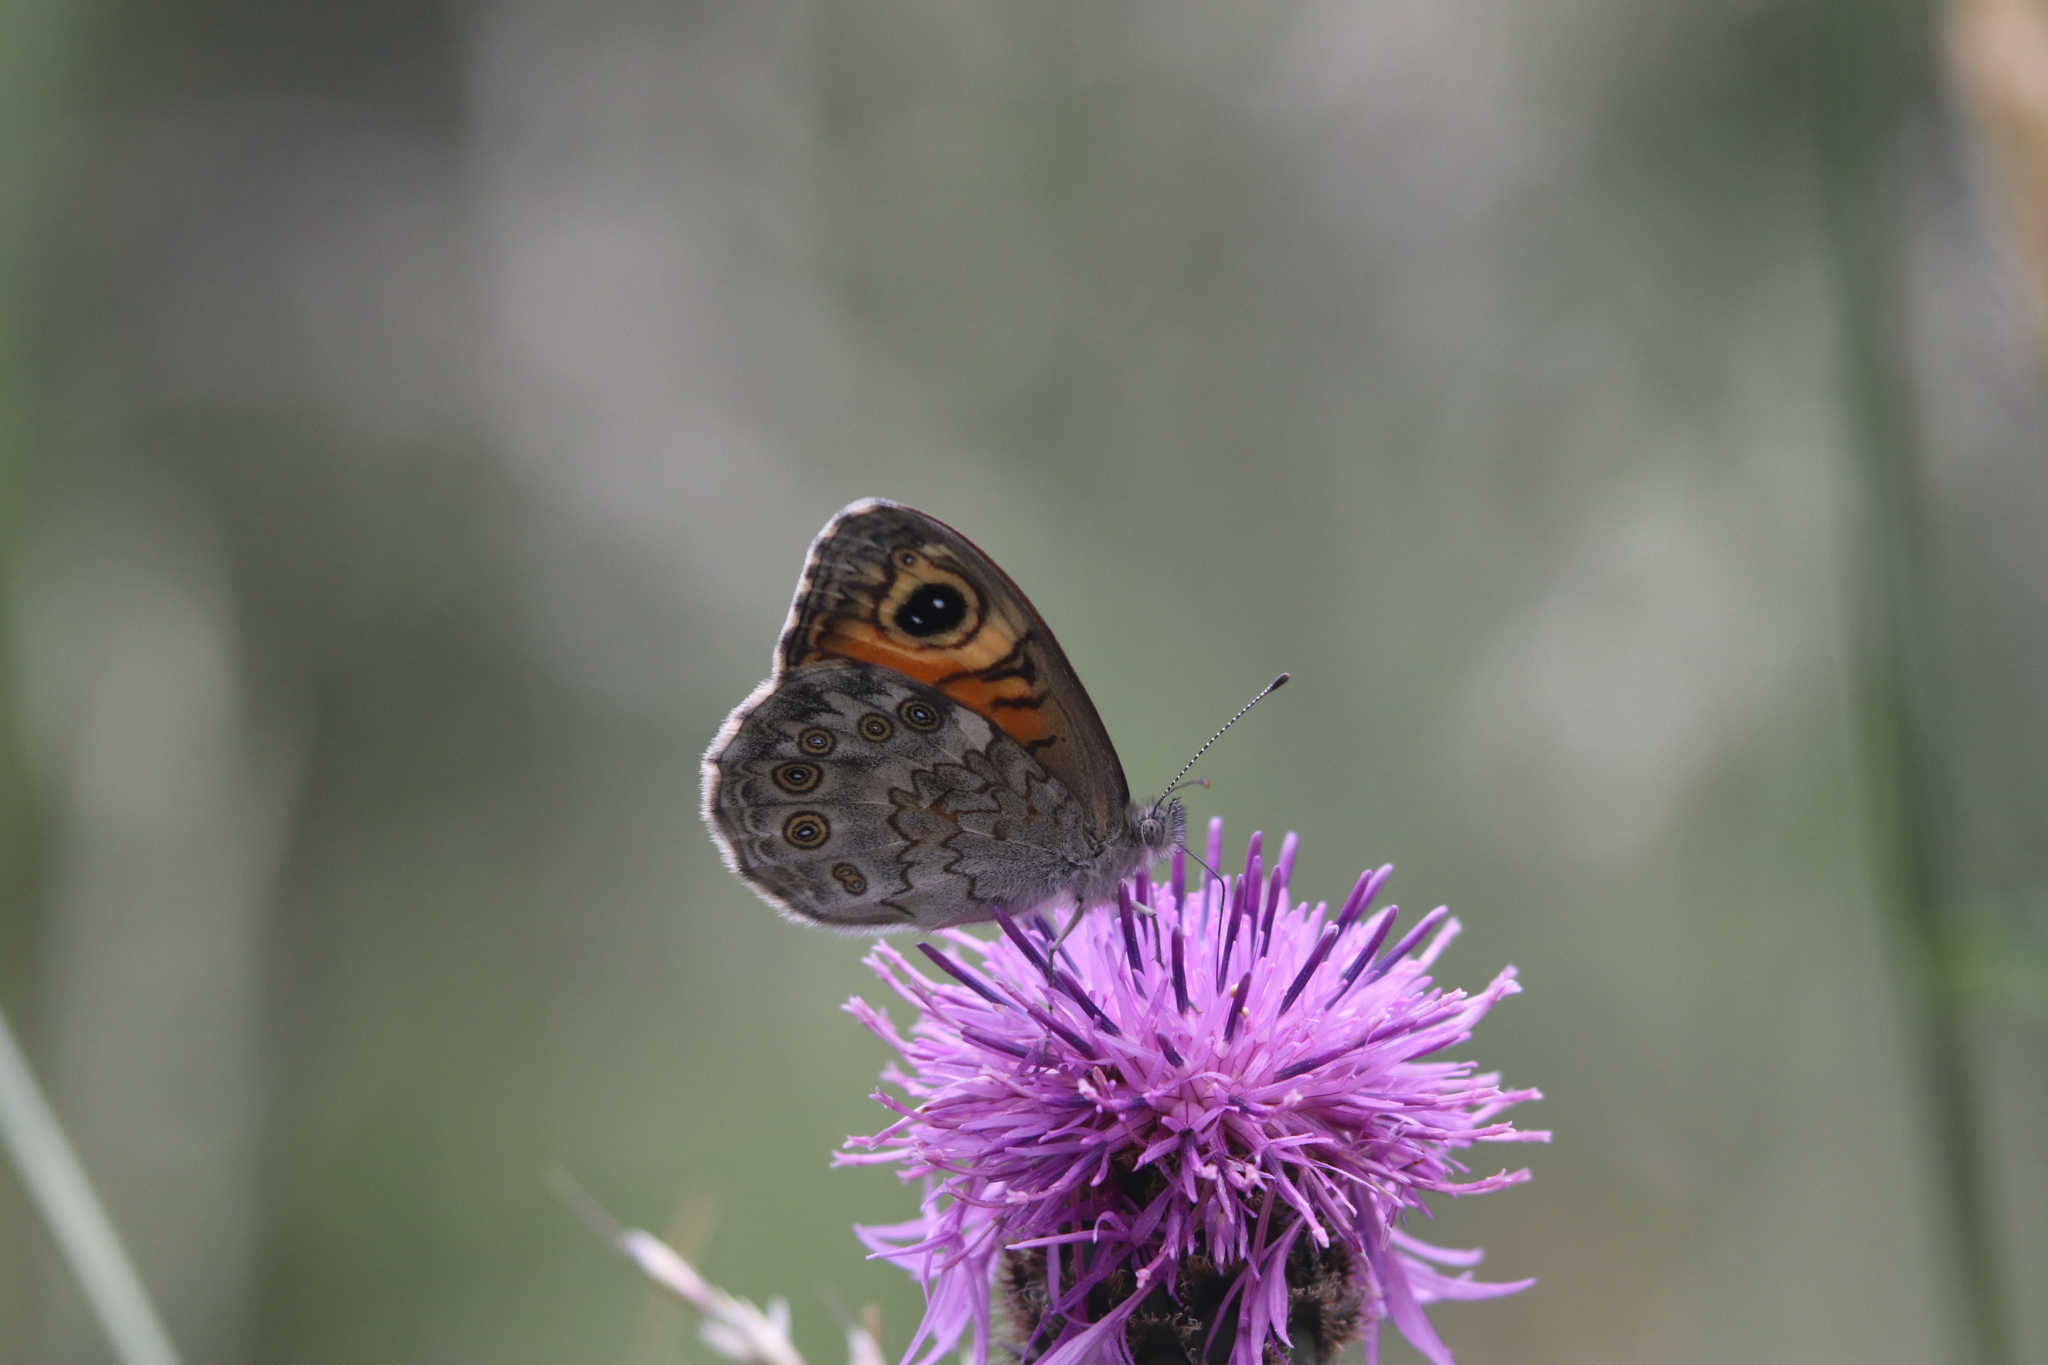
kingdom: Animalia
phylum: Arthropoda
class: Insecta
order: Lepidoptera
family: Nymphalidae
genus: Pararge
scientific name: Pararge Lasiommata maera
